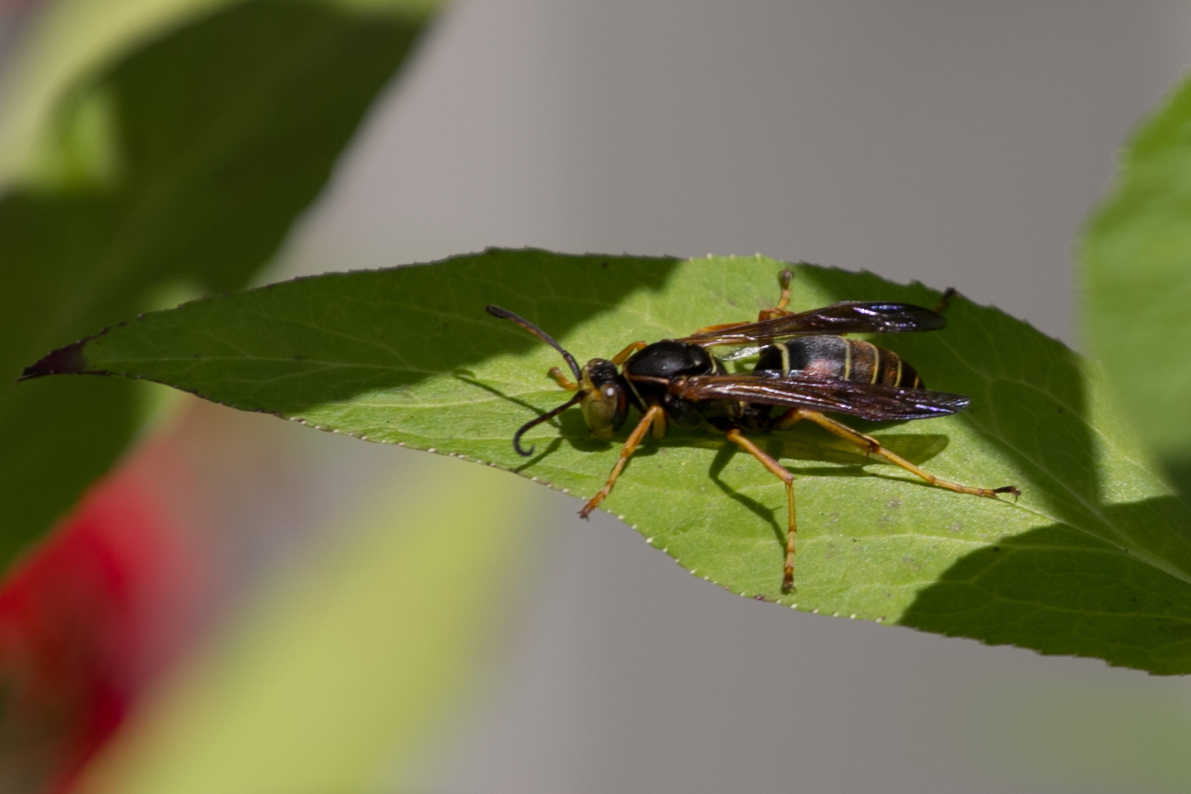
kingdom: Animalia
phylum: Arthropoda
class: Insecta
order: Hymenoptera
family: Eumenidae
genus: Polistes
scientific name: Polistes fuscatus
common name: Dark paper wasp
